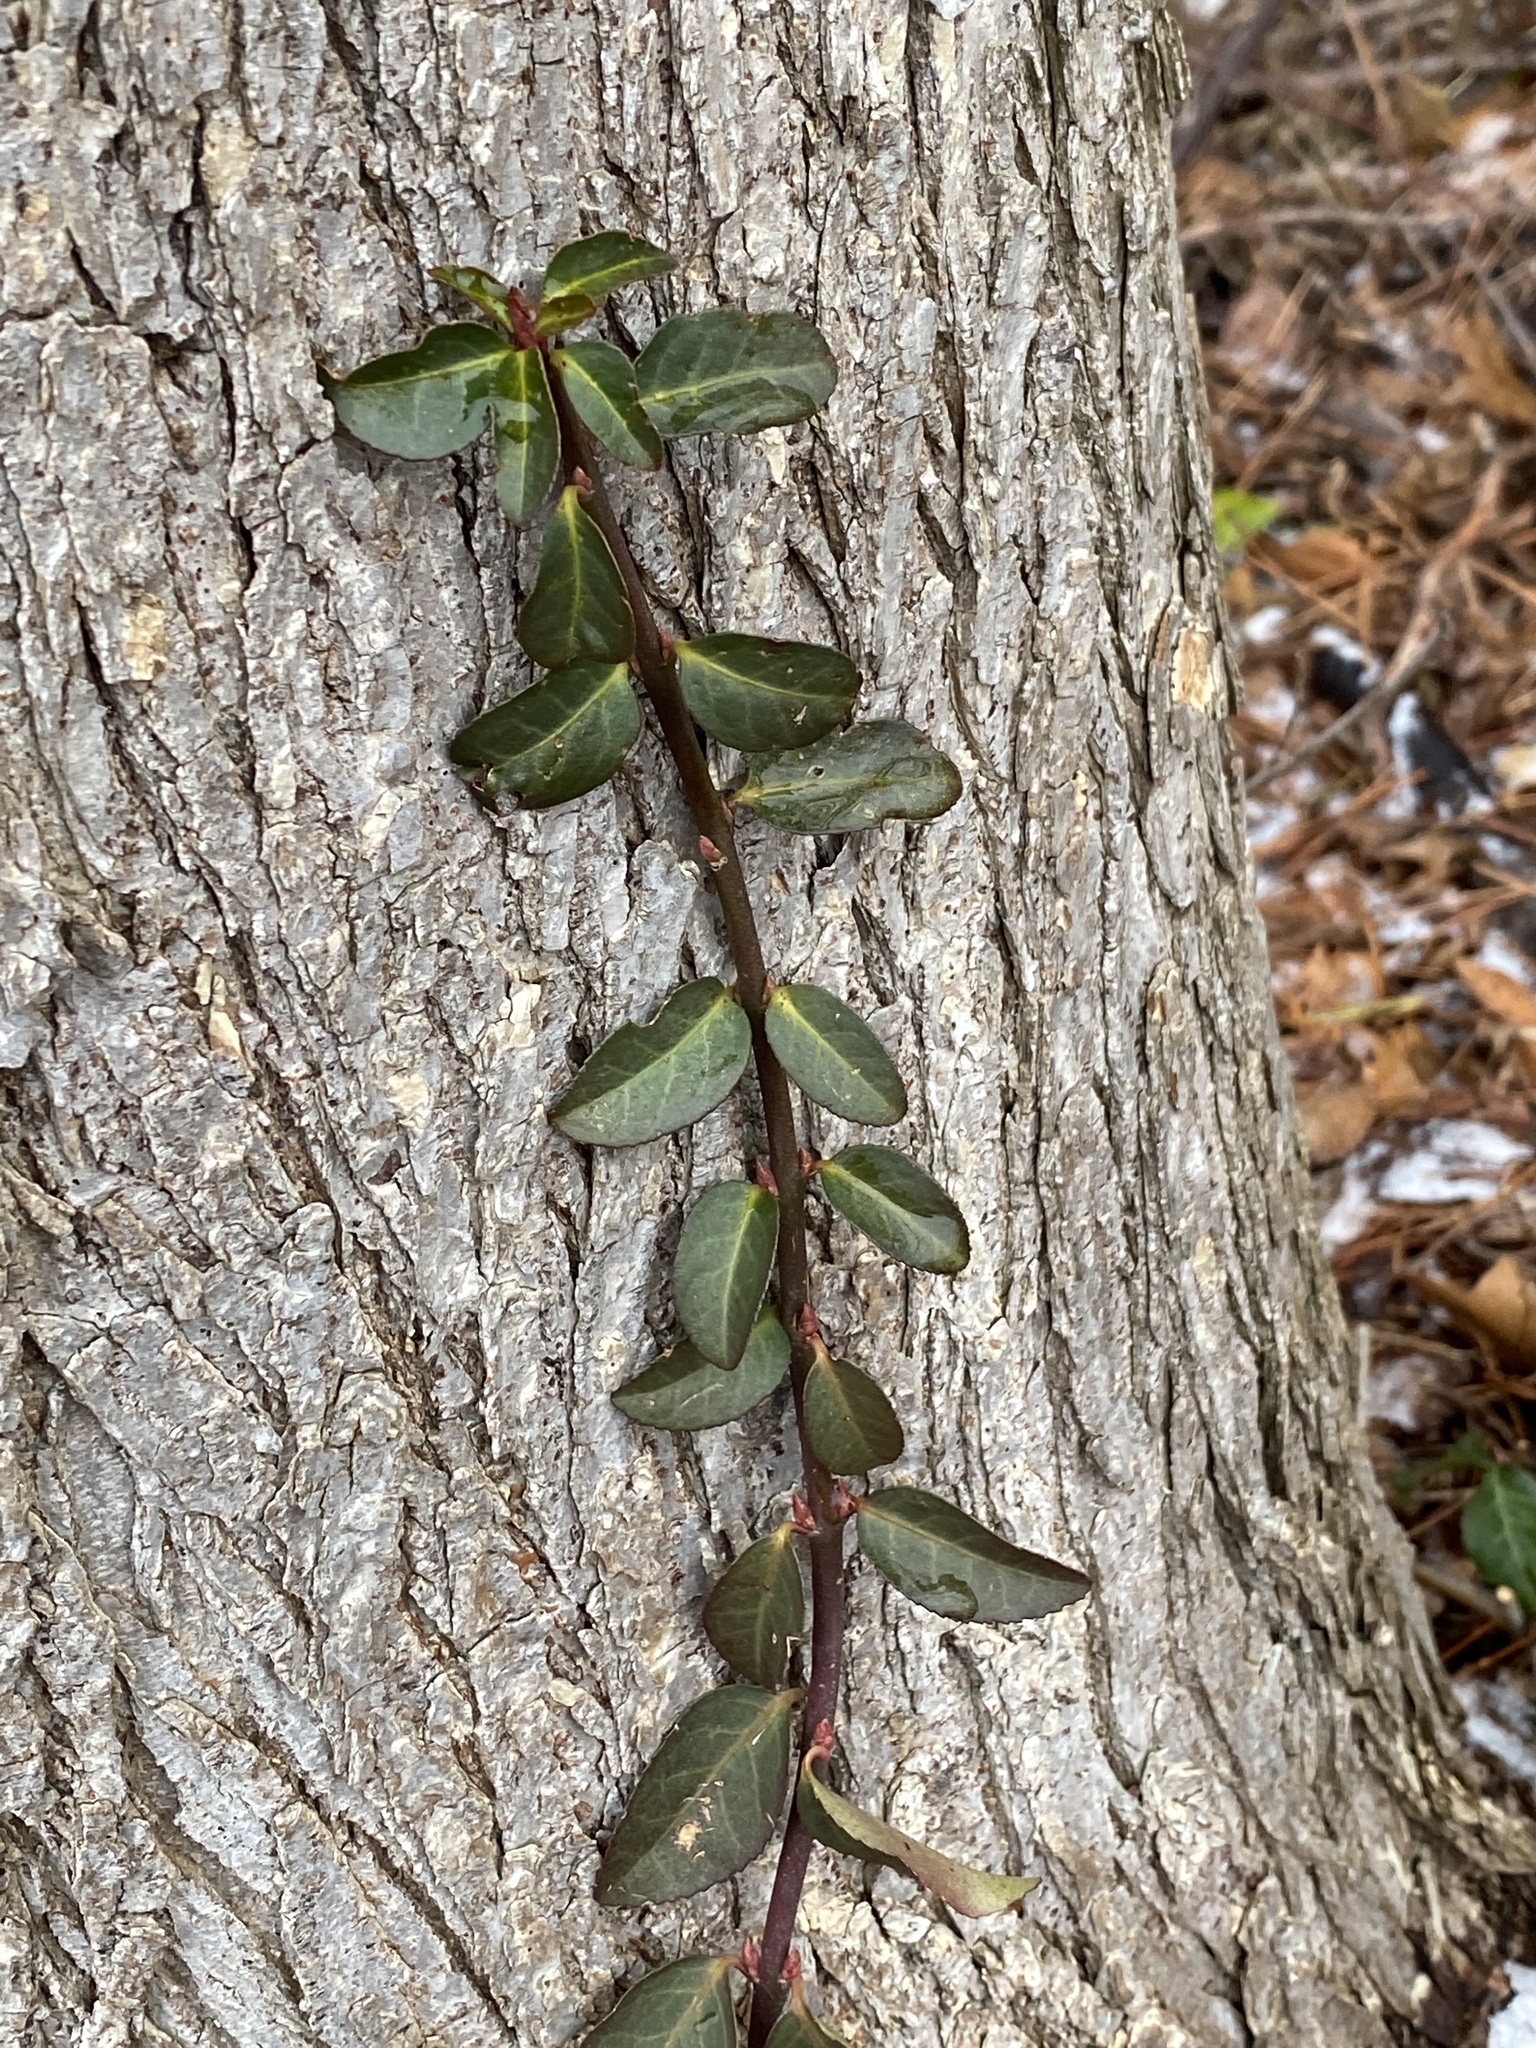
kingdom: Plantae
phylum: Tracheophyta
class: Magnoliopsida
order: Celastrales
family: Celastraceae
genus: Euonymus
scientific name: Euonymus fortunei
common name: Climbing euonymus
